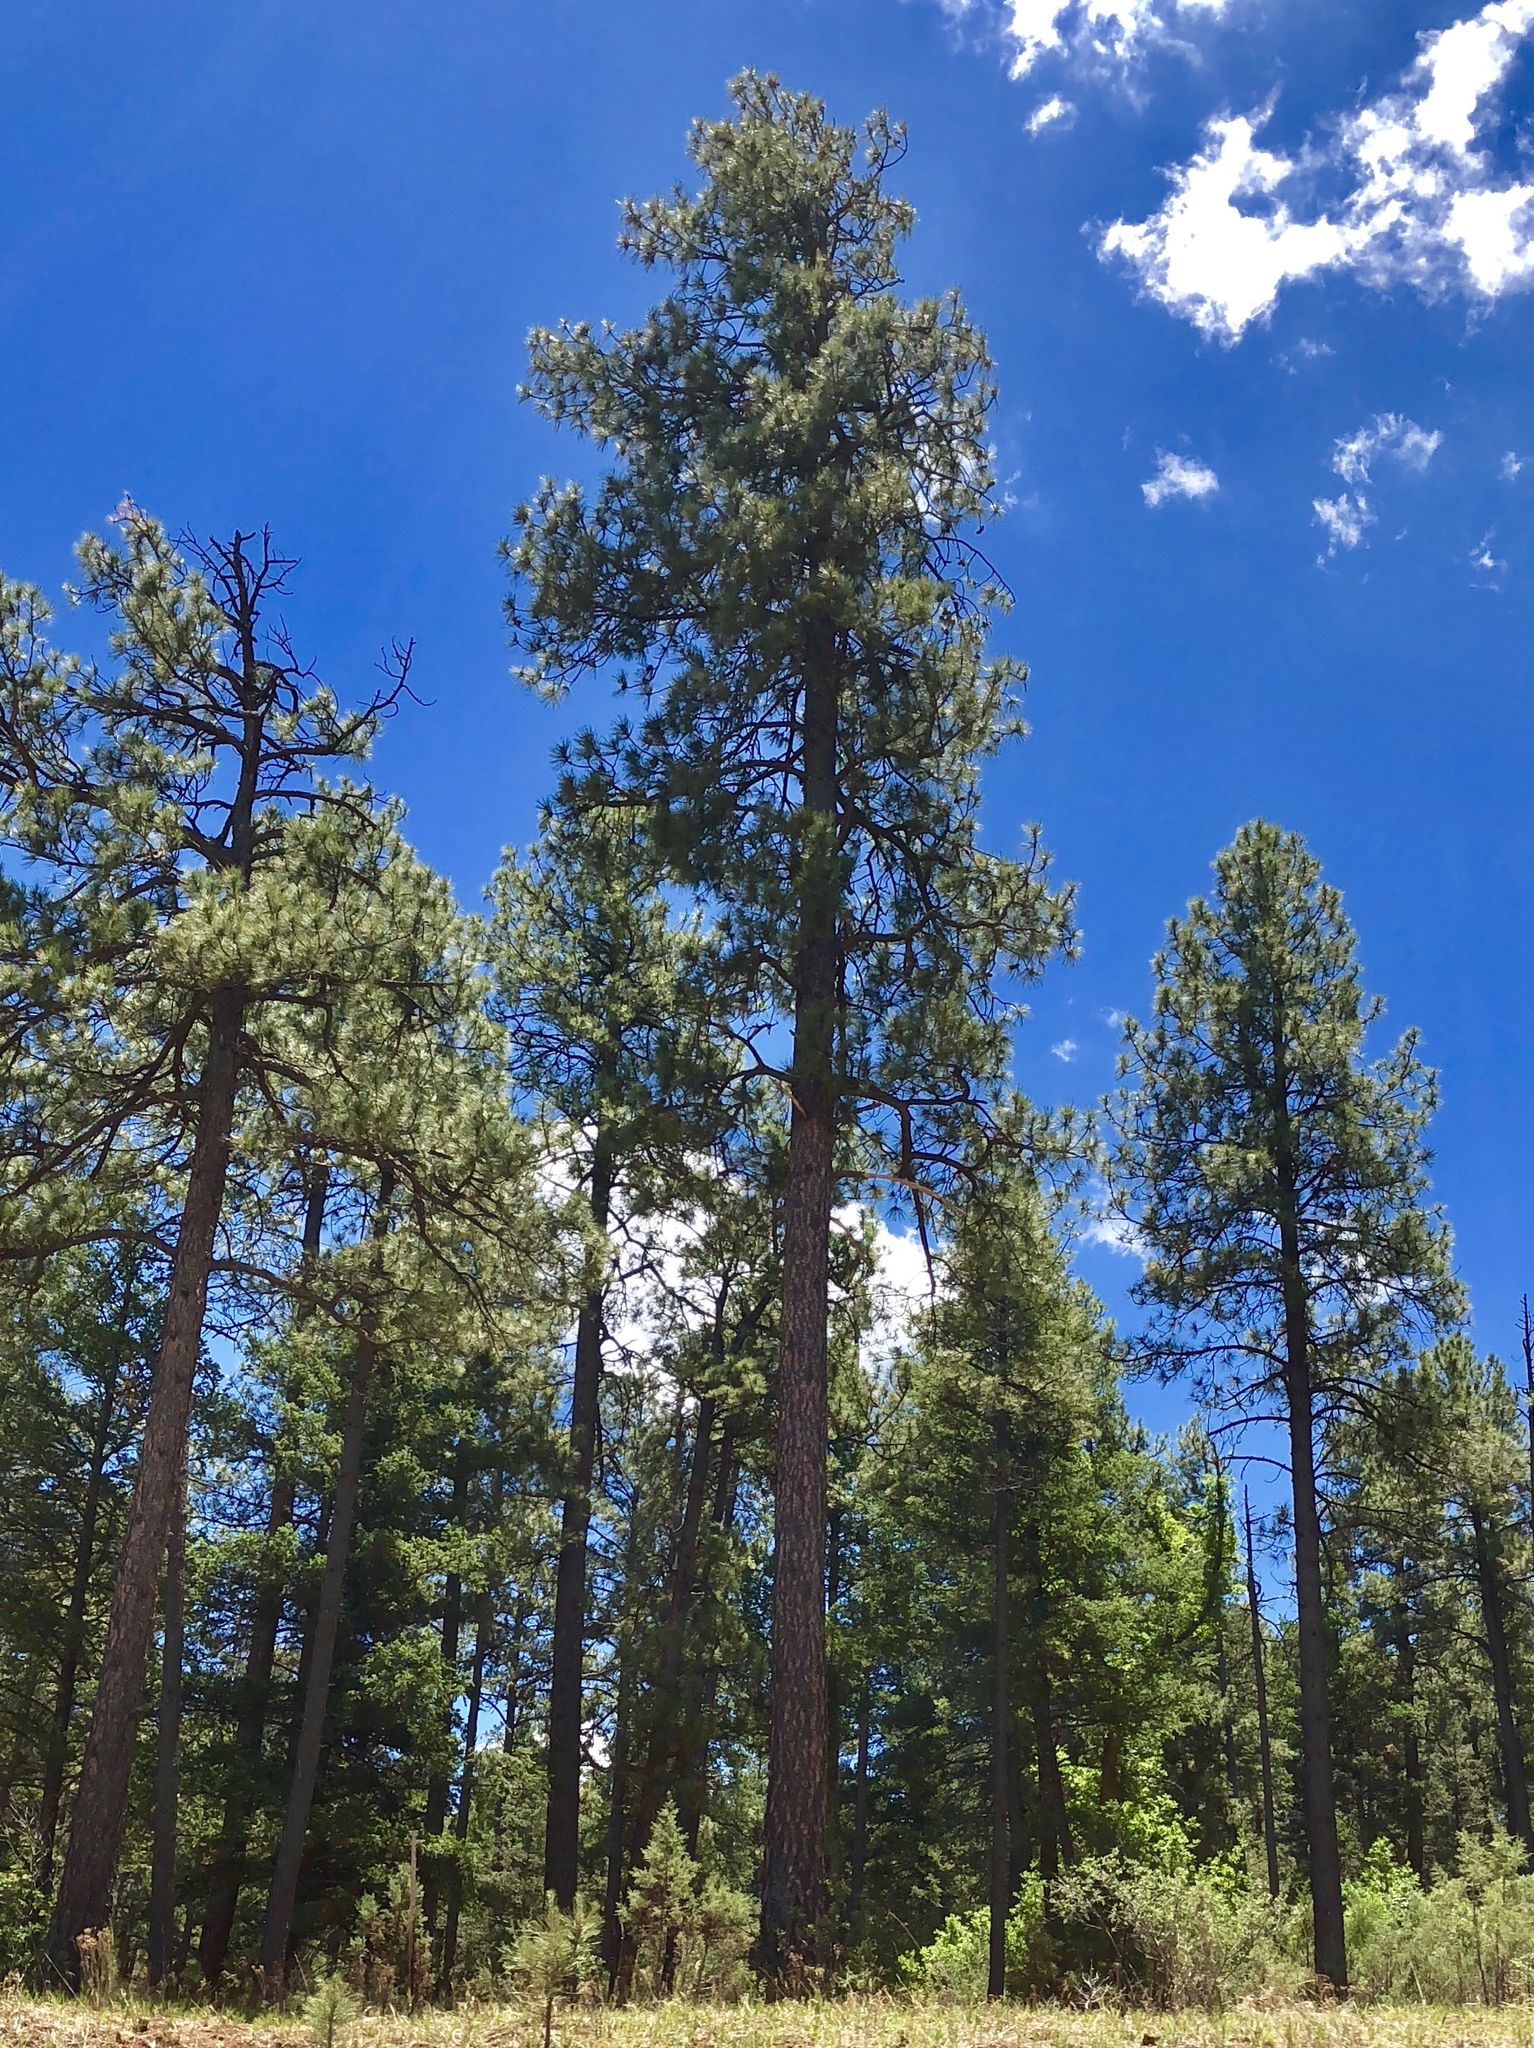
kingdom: Plantae
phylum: Tracheophyta
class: Pinopsida
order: Pinales
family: Pinaceae
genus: Pinus
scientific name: Pinus ponderosa
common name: Western yellow-pine
